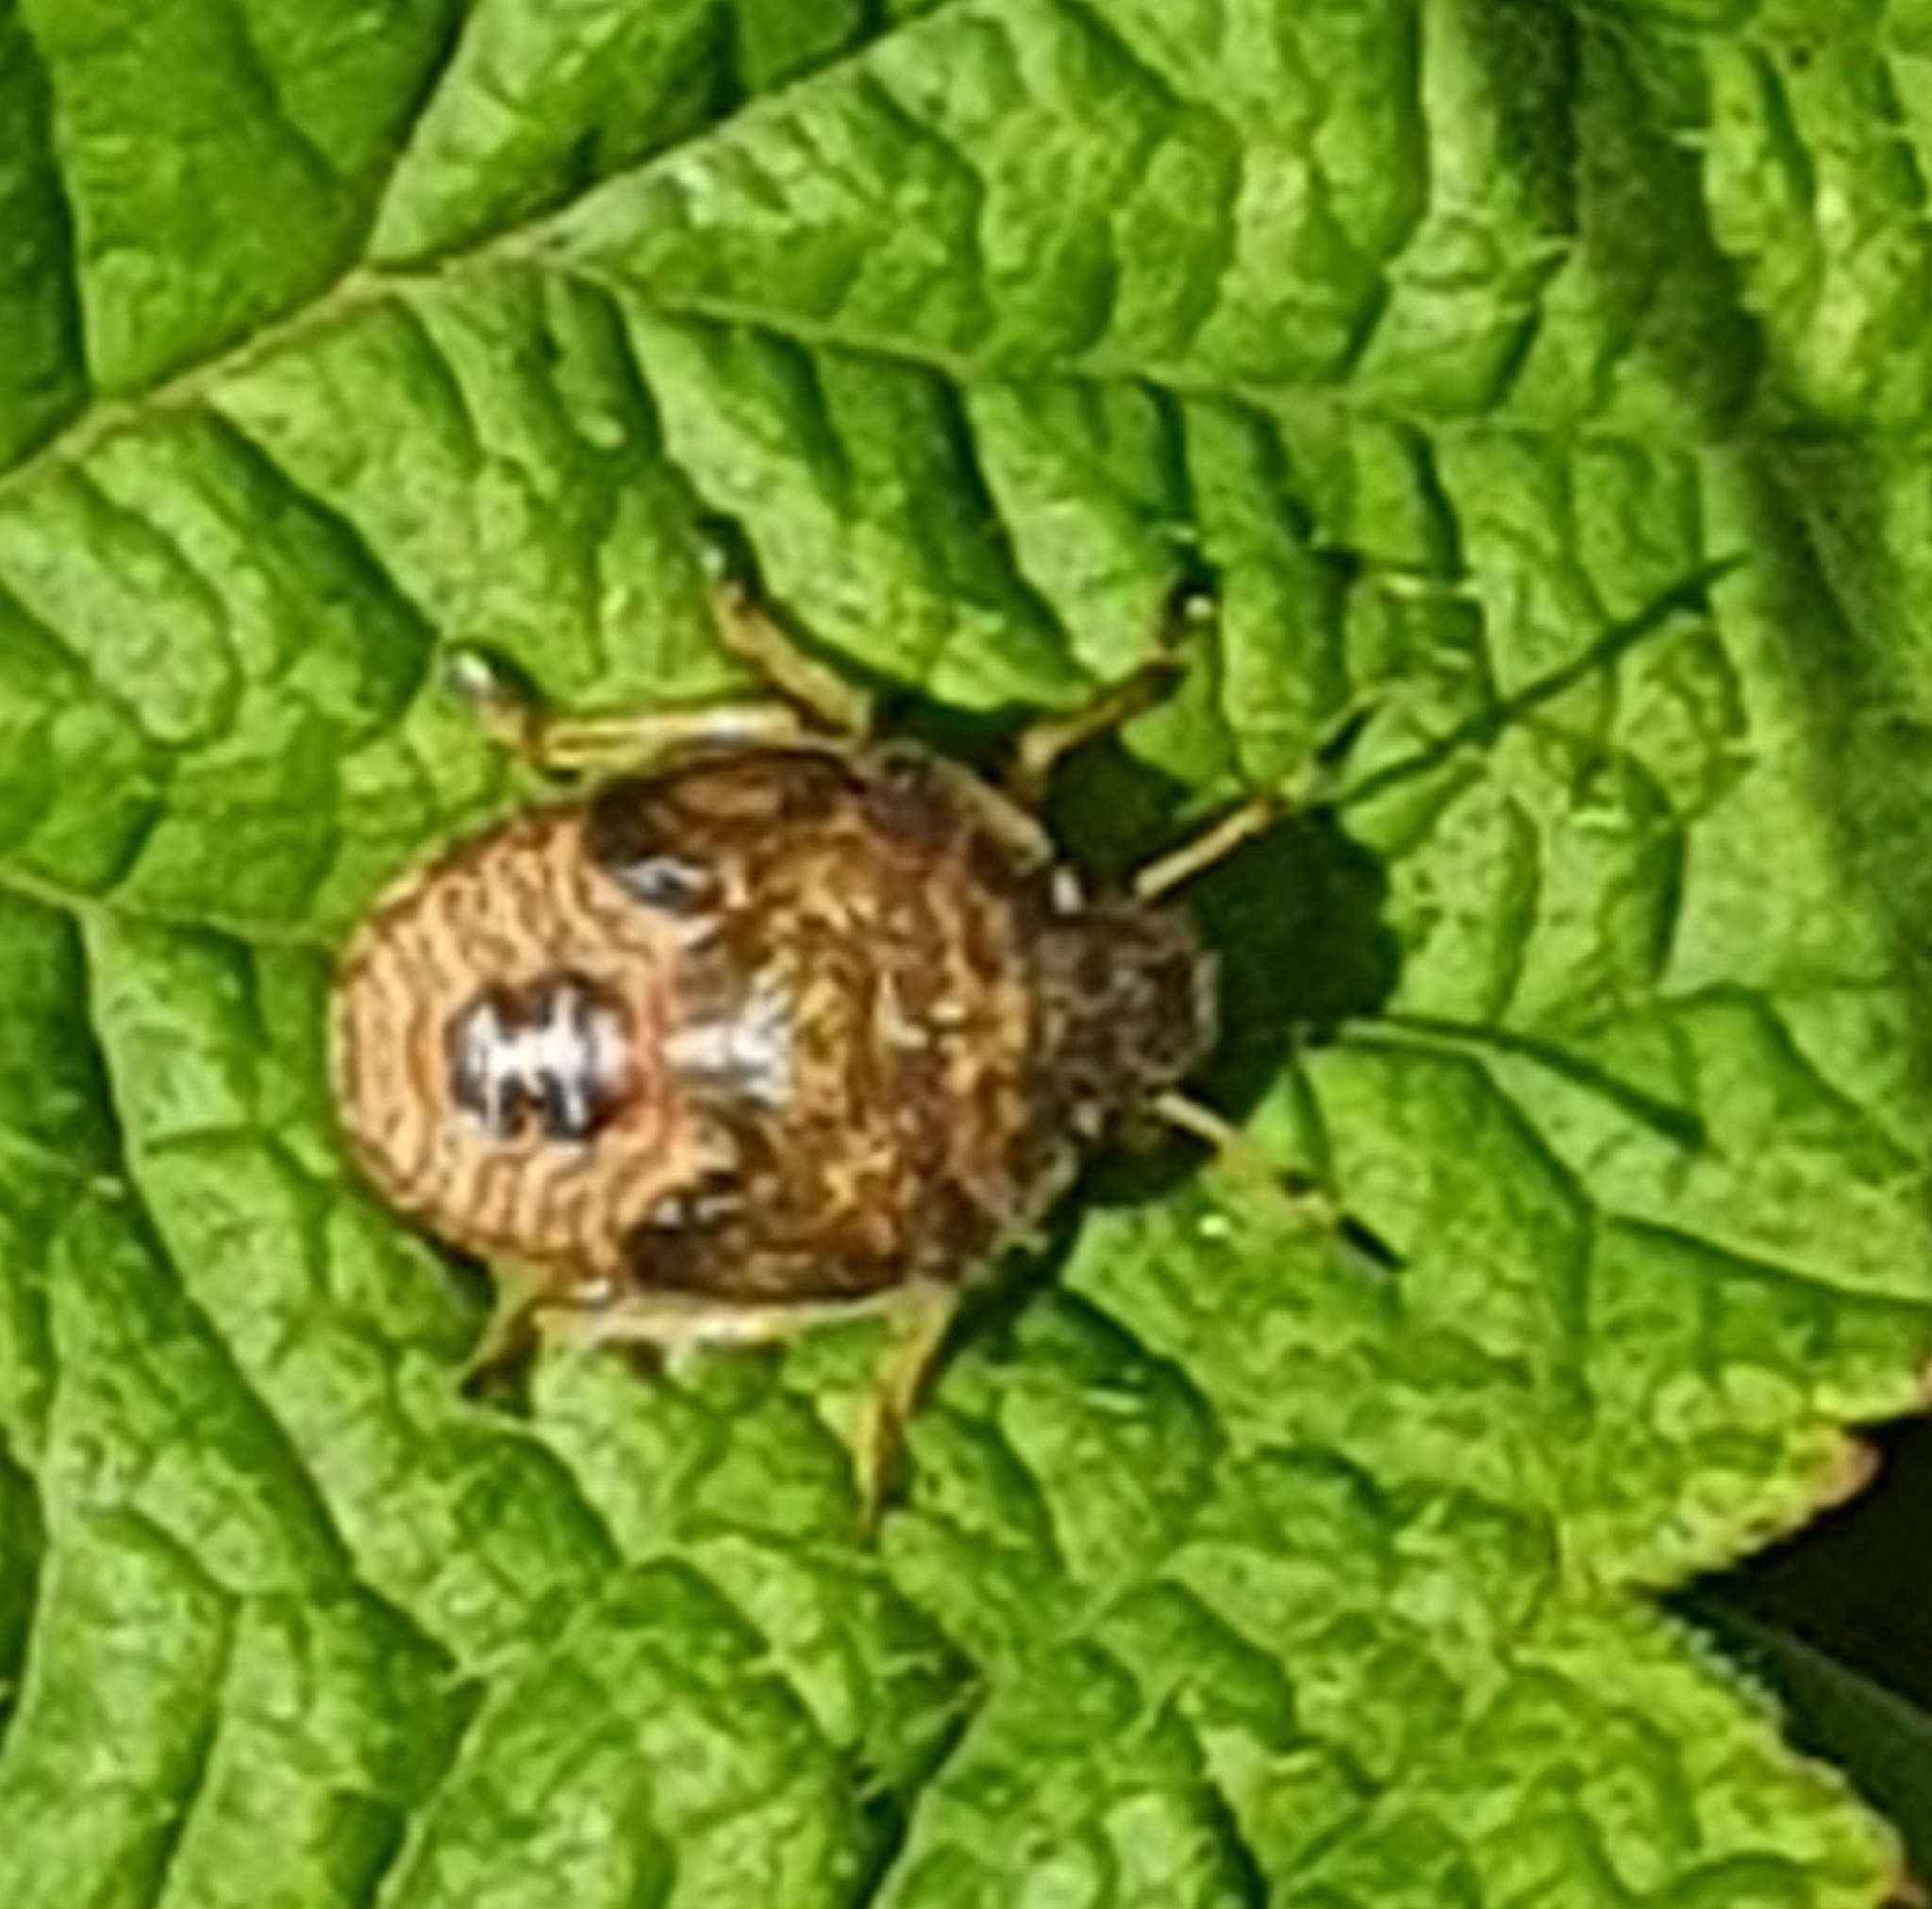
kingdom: Animalia
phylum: Arthropoda
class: Insecta
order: Hemiptera
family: Pentatomidae
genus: Holcostethus
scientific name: Holcostethus strictus
